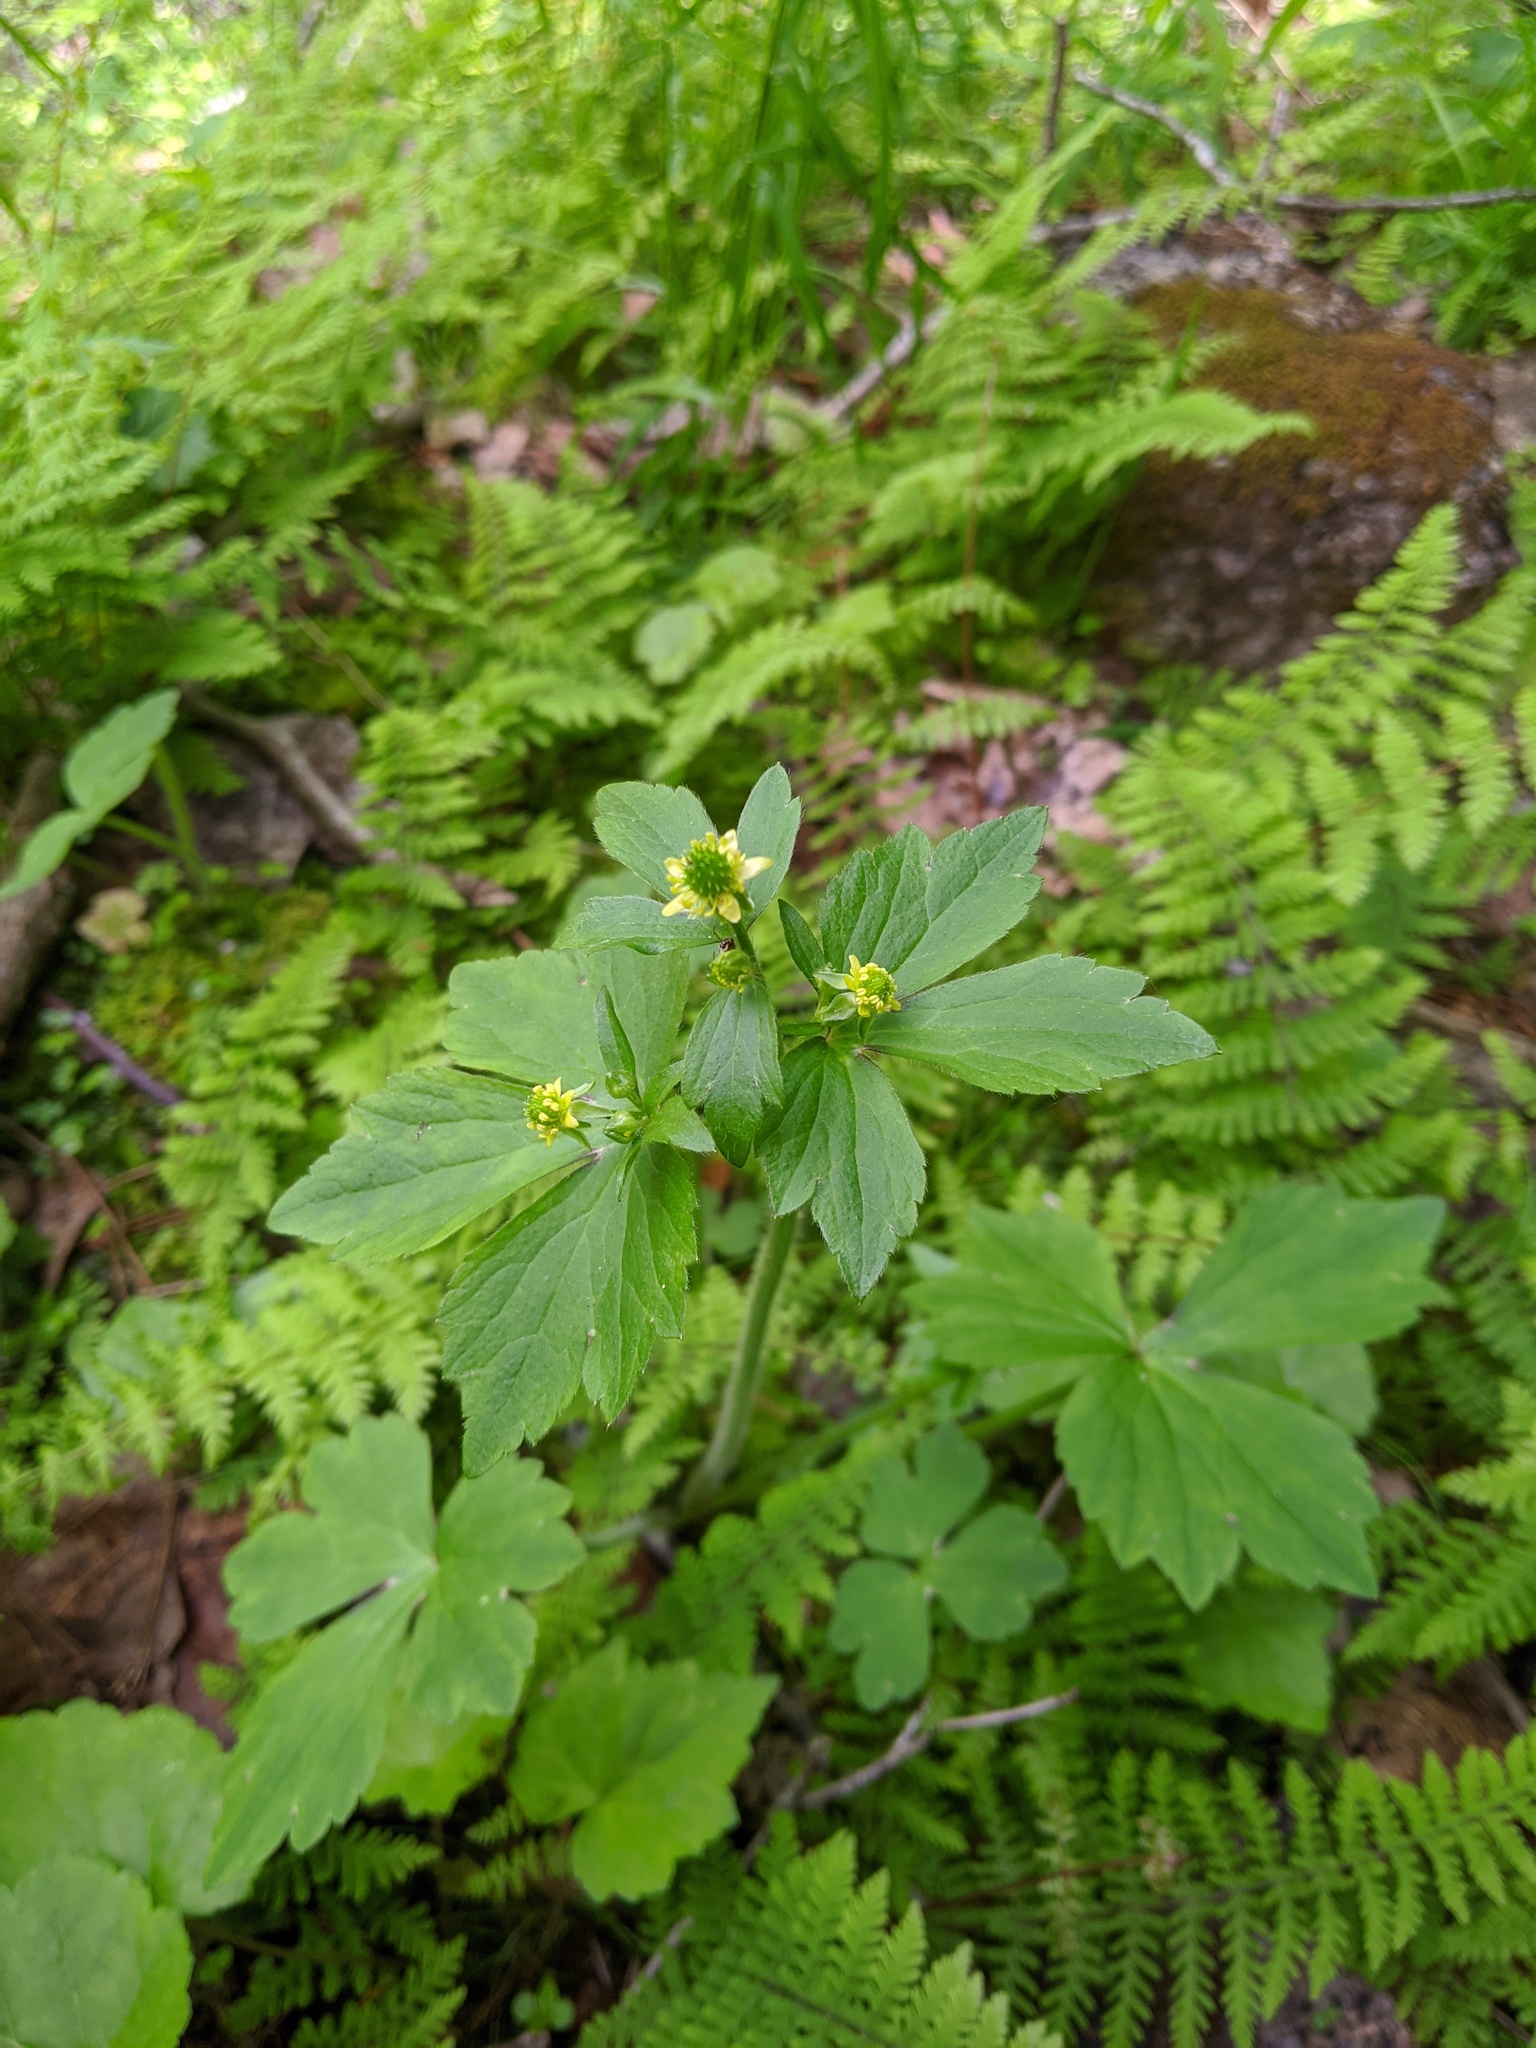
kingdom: Plantae
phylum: Tracheophyta
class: Magnoliopsida
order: Ranunculales
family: Ranunculaceae
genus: Ranunculus
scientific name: Ranunculus recurvatus
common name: Blisterwort
